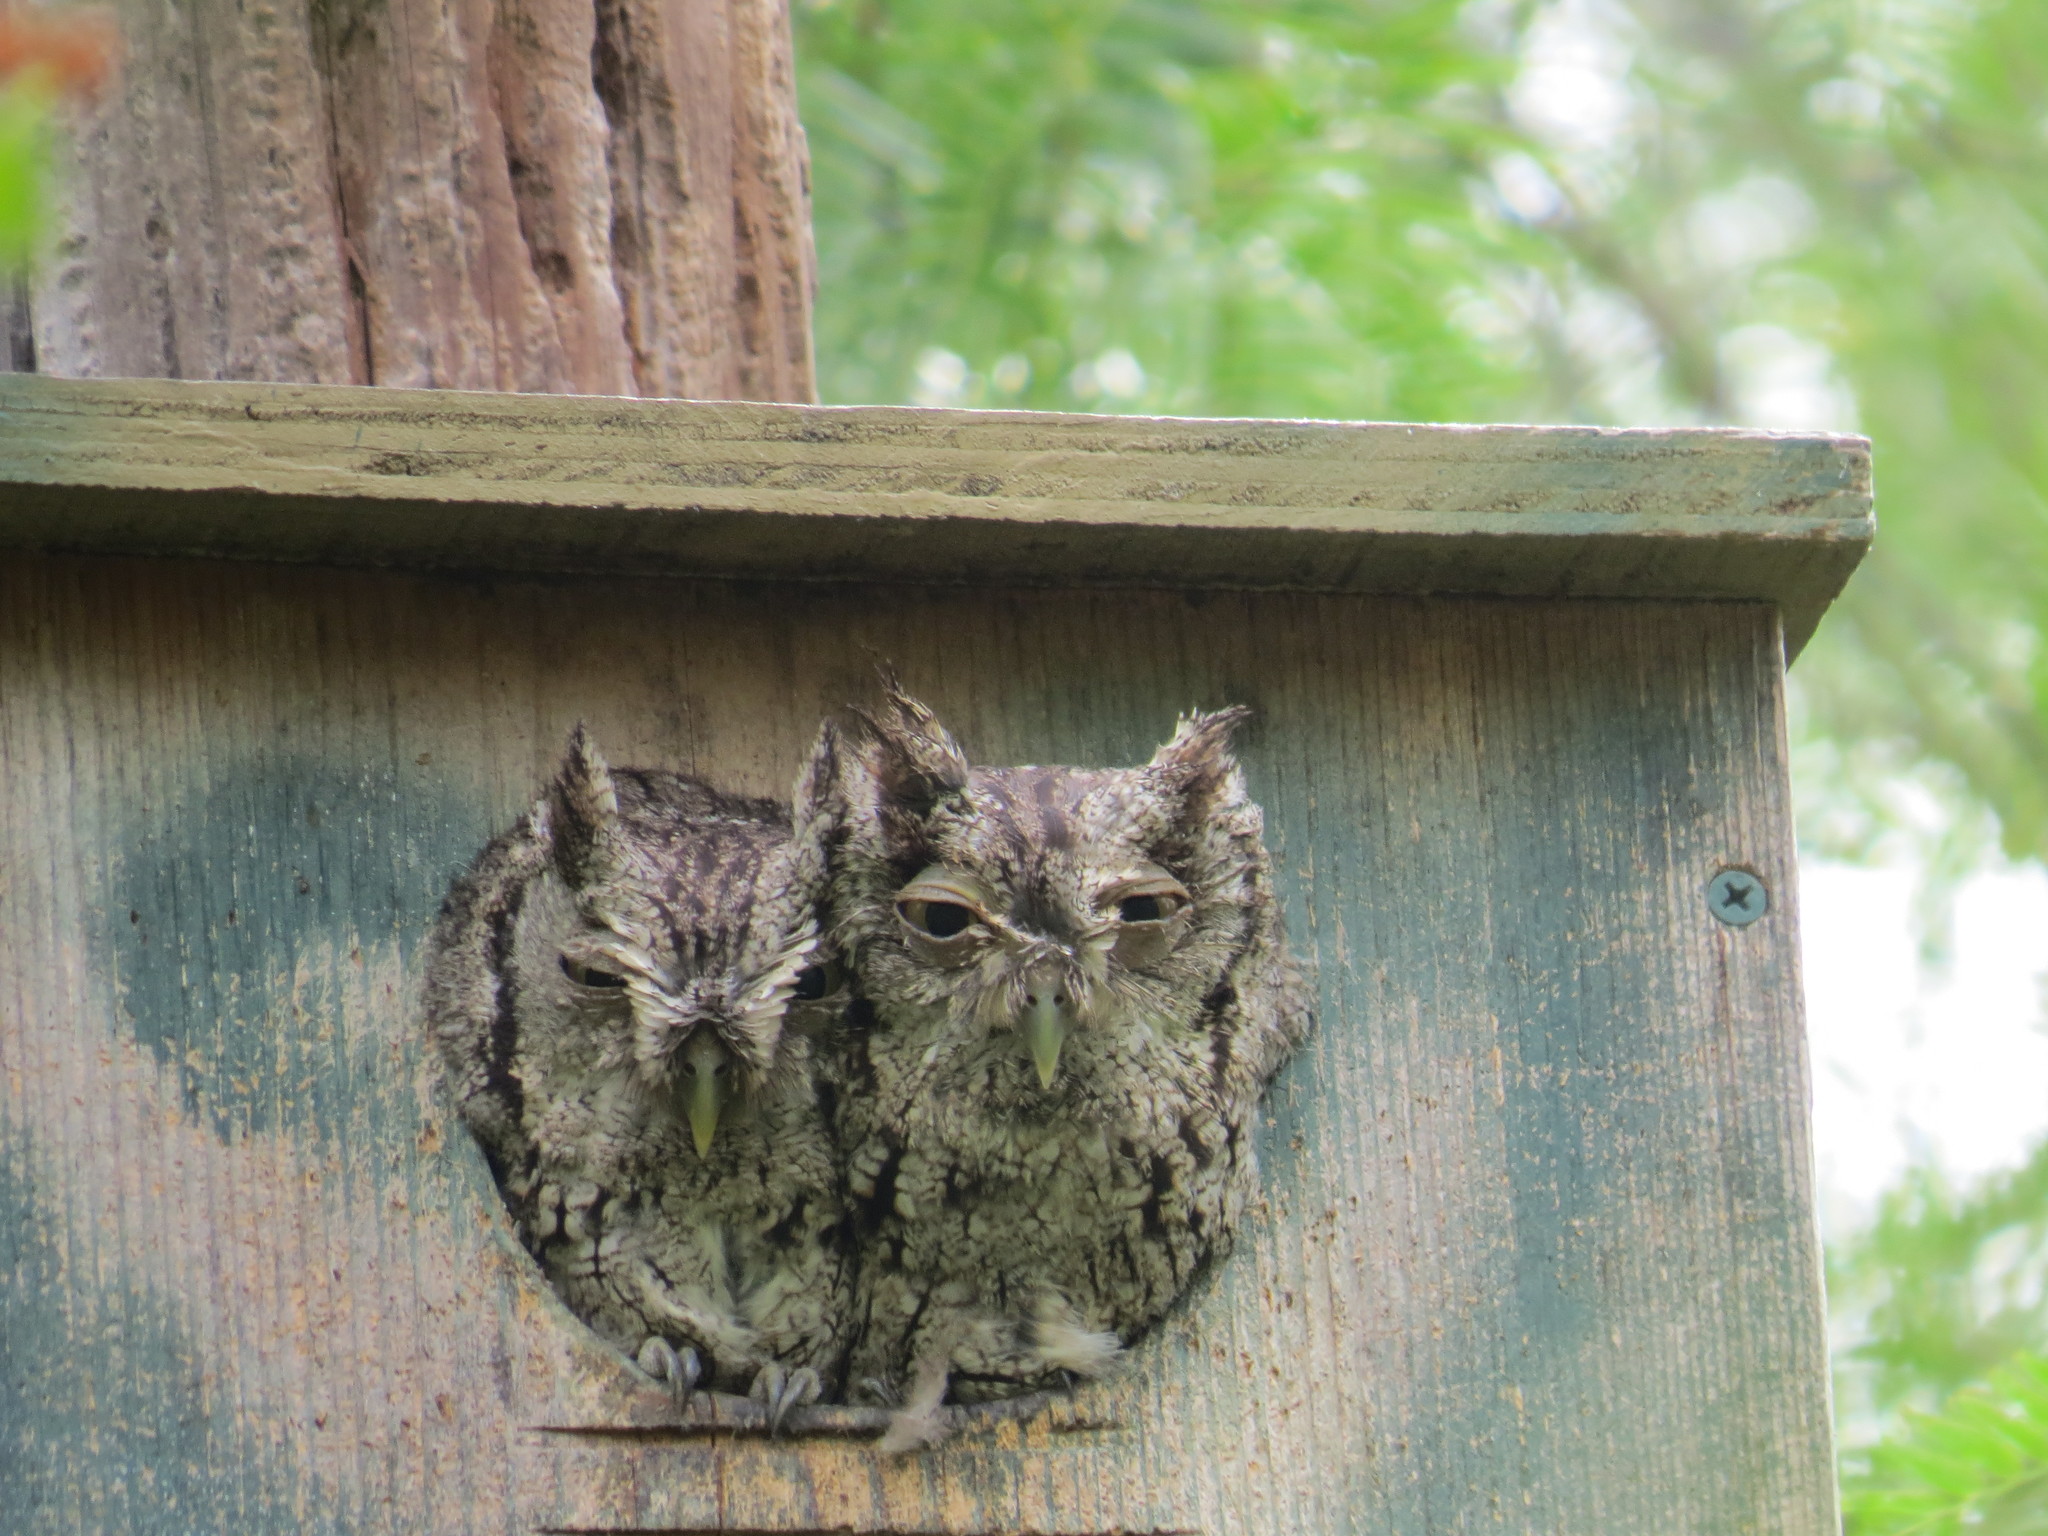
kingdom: Animalia
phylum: Chordata
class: Aves
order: Strigiformes
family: Strigidae
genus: Megascops
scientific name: Megascops asio
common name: Eastern screech-owl
